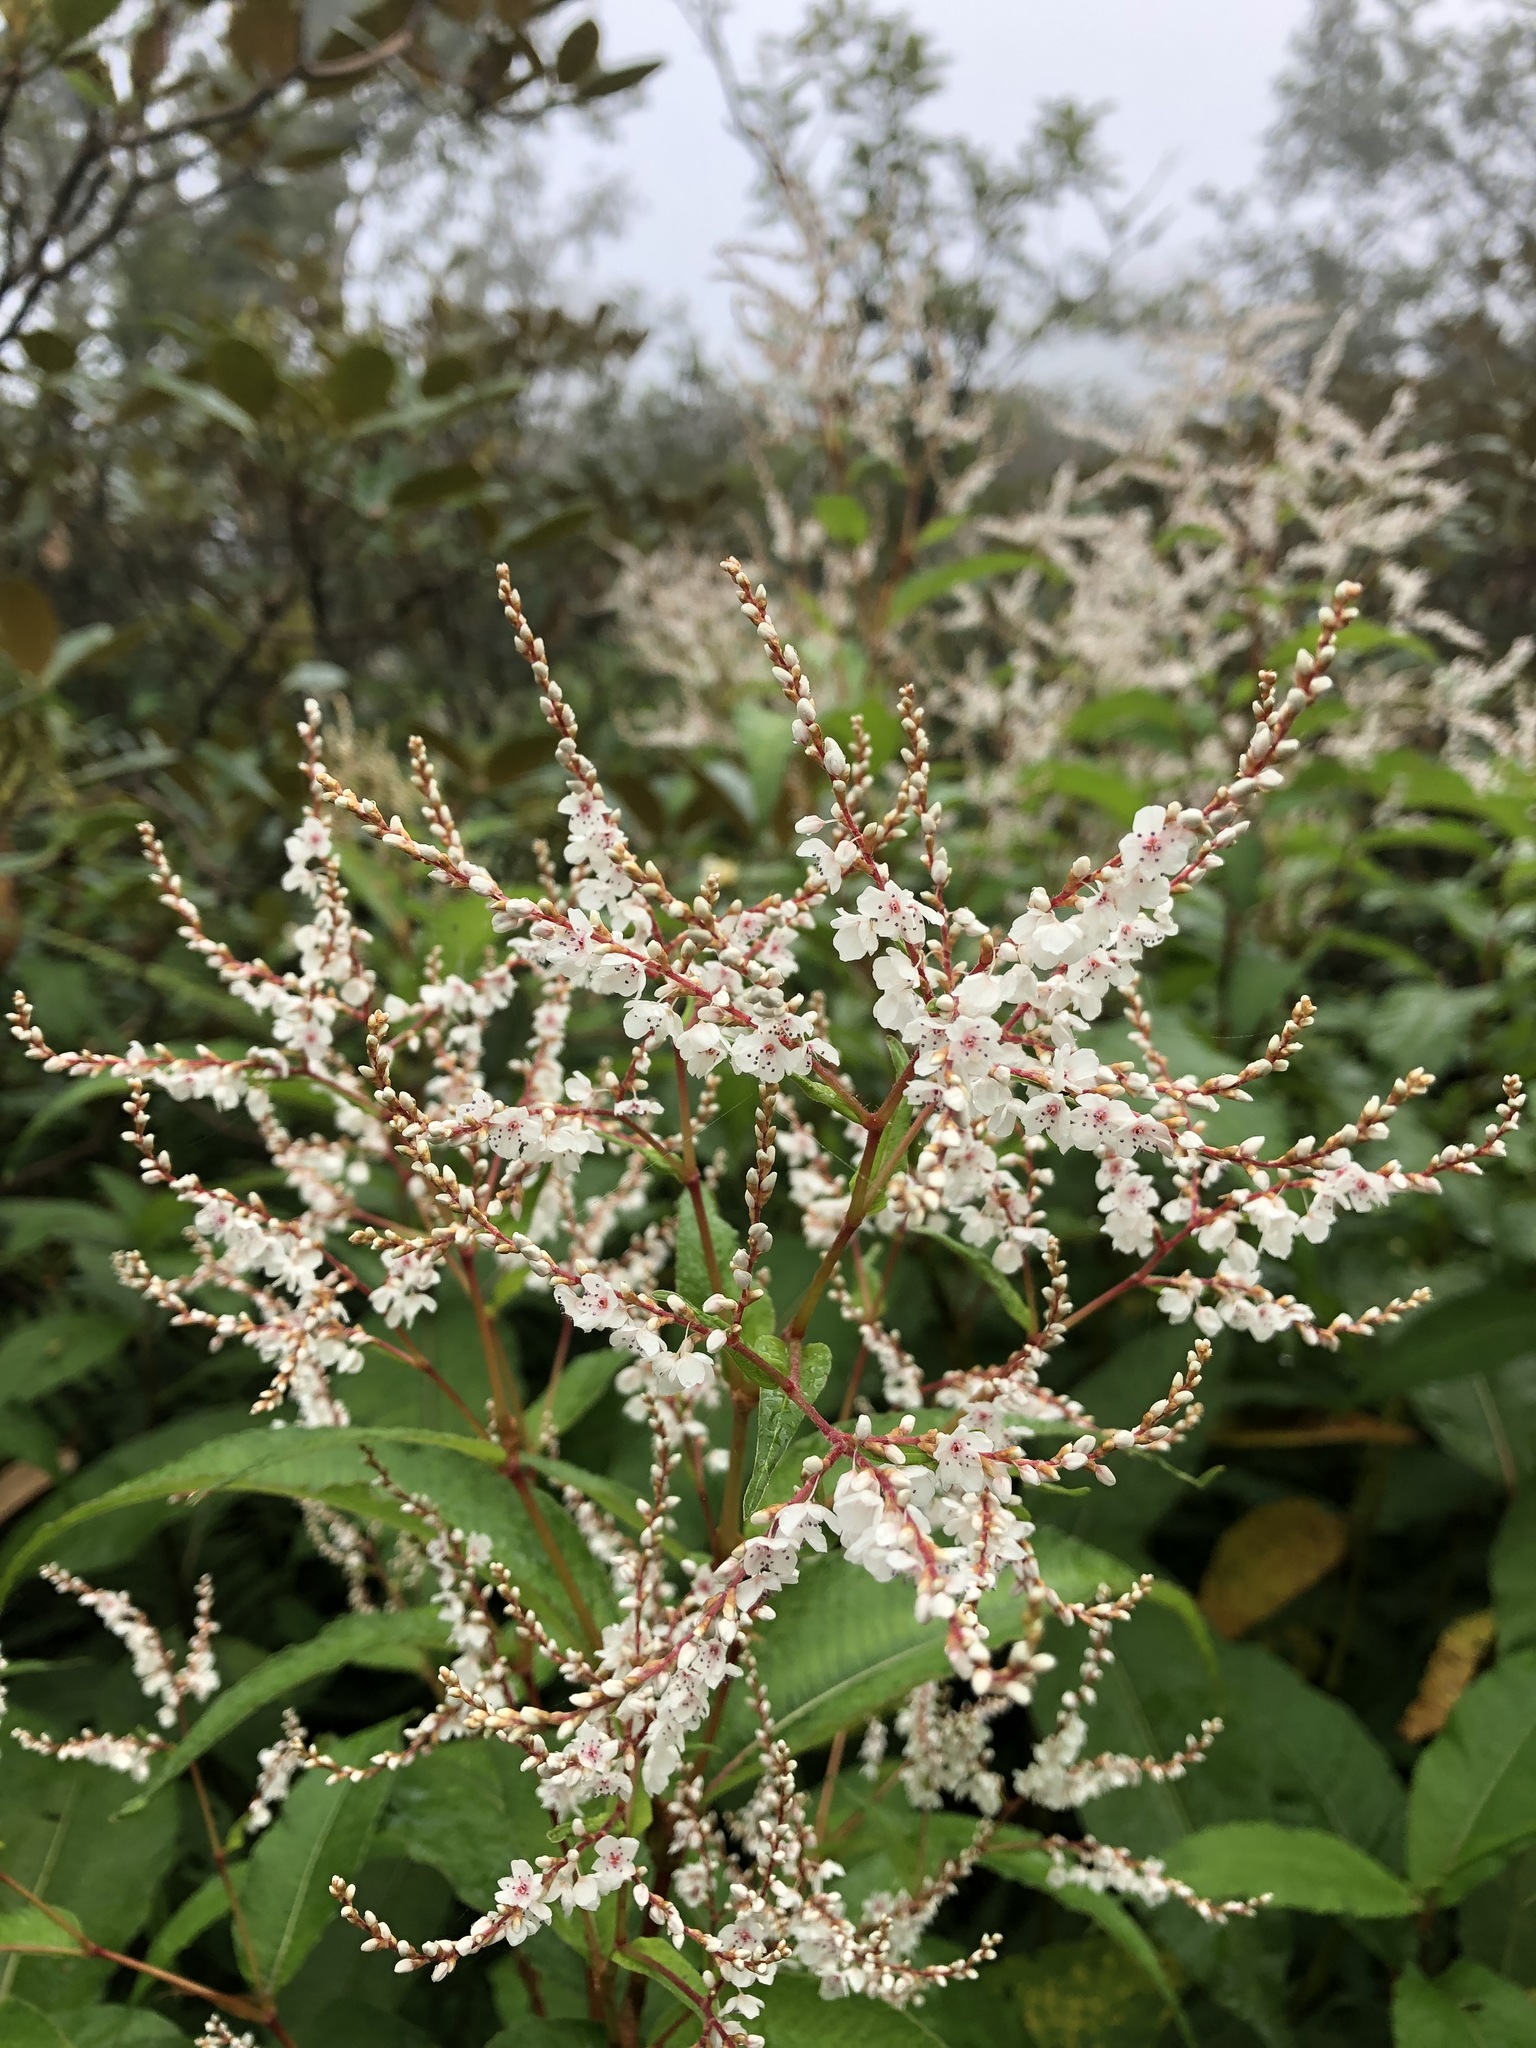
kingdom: Plantae
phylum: Tracheophyta
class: Magnoliopsida
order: Caryophyllales
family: Polygonaceae
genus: Koenigia
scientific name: Koenigia polystachya
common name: Himalayan knotweed
